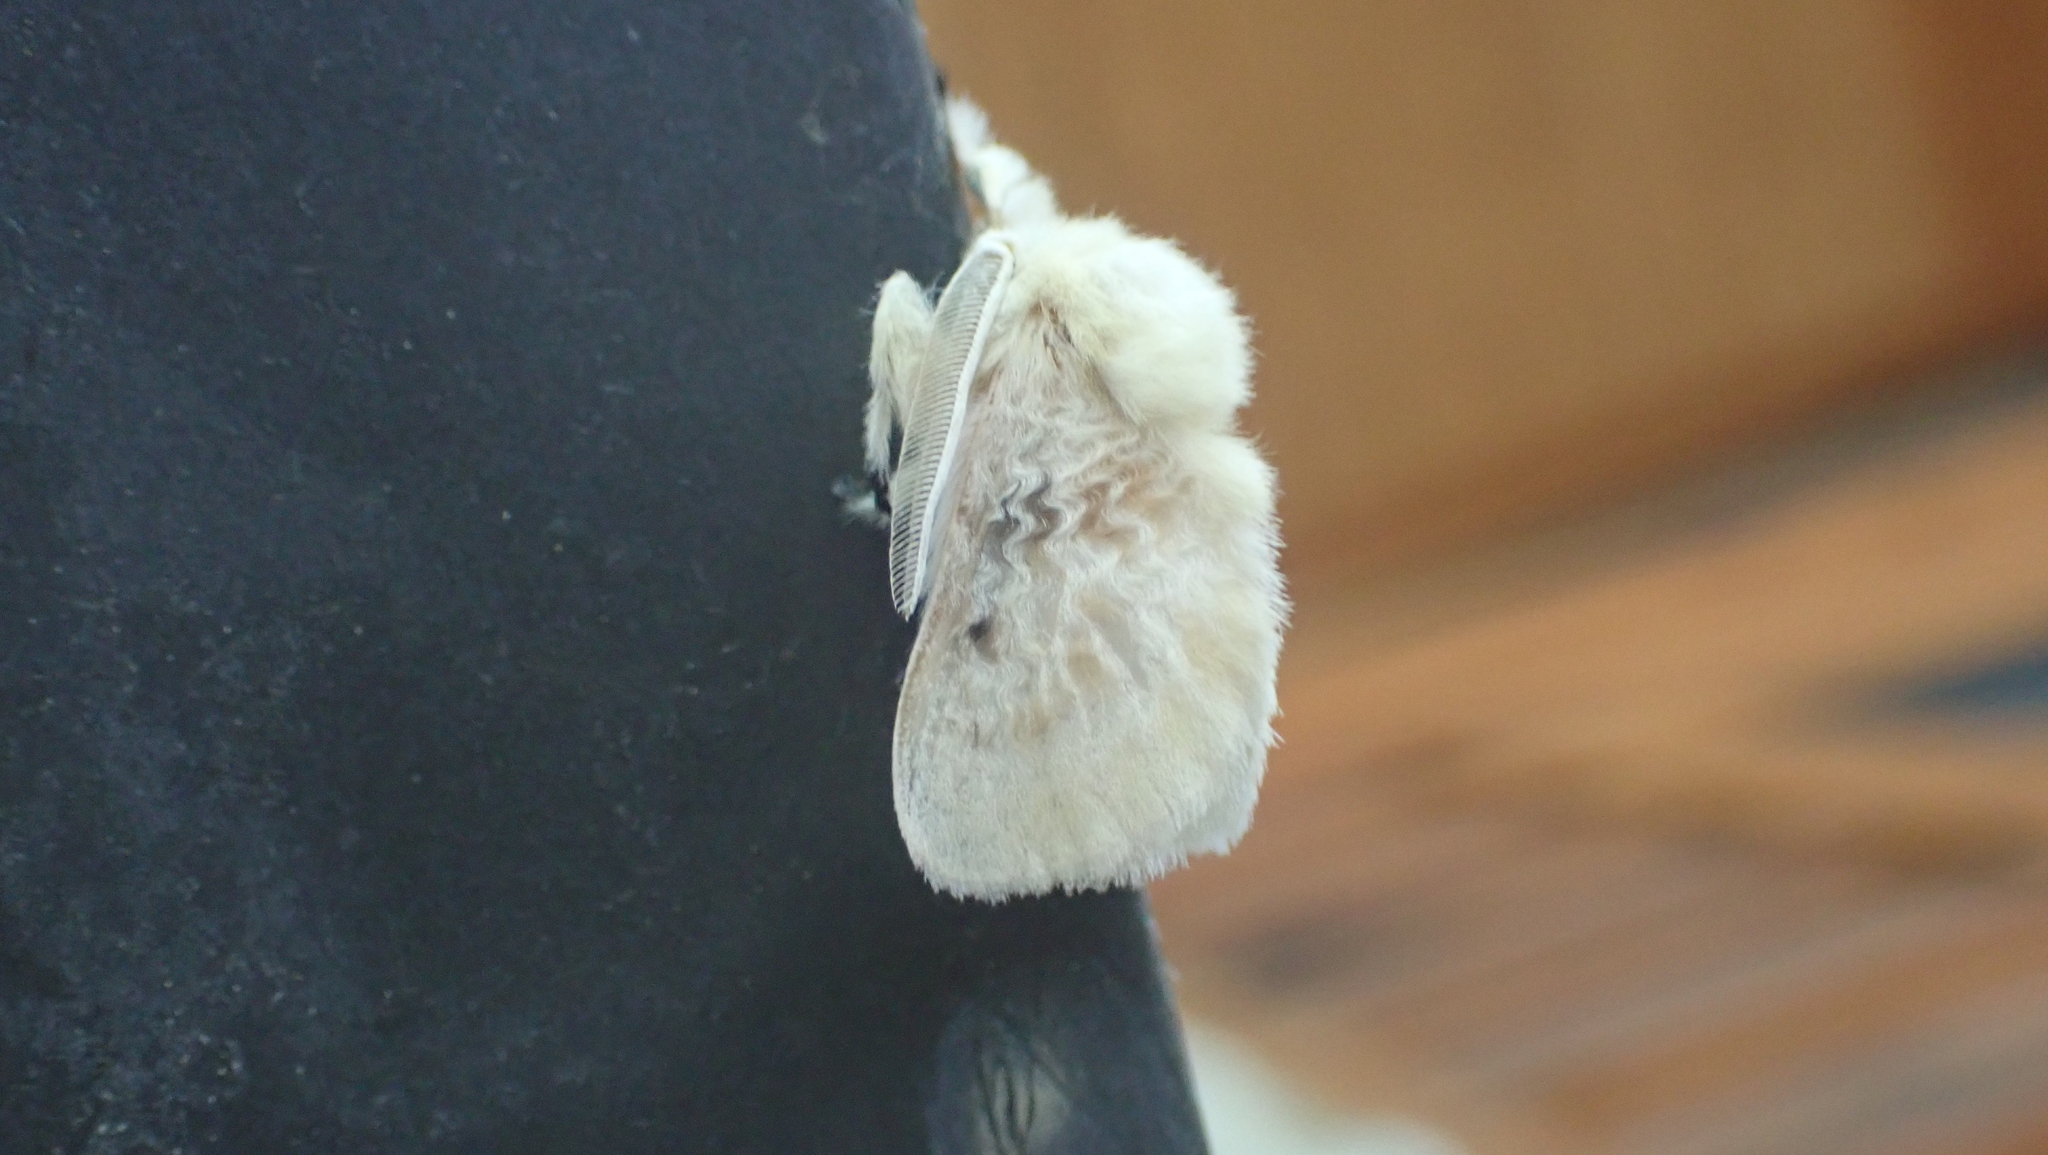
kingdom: Animalia
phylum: Arthropoda
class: Insecta
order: Lepidoptera
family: Megalopygidae
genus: Megalopyge
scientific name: Megalopyge crispata
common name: Black-waved flannel moth
